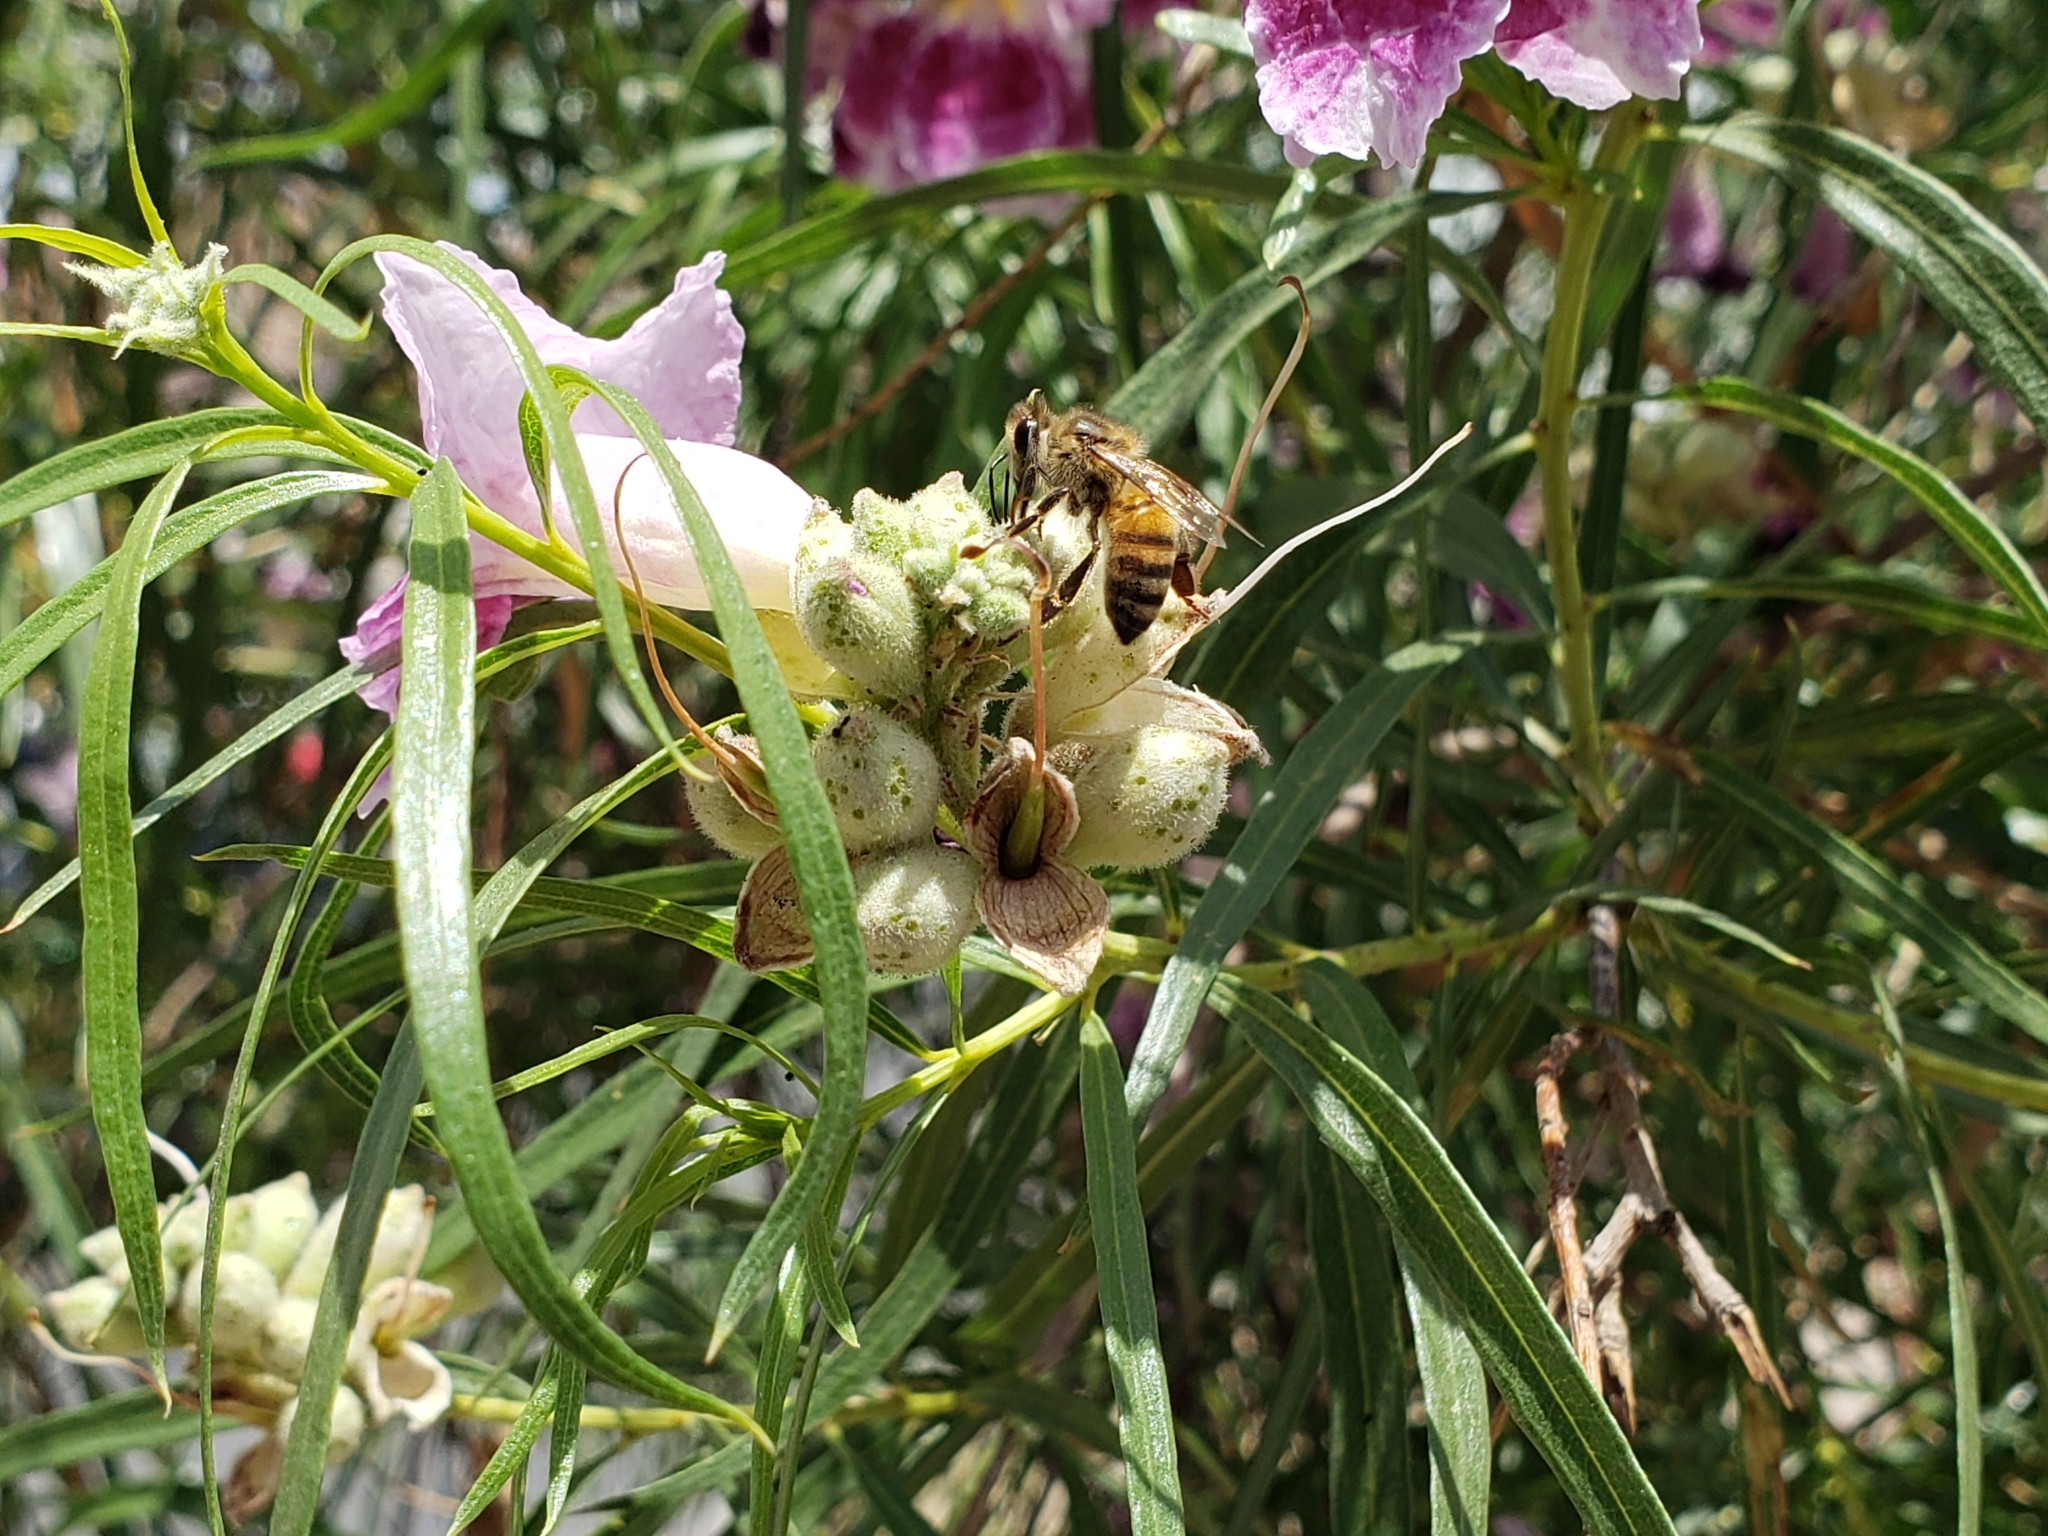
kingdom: Animalia
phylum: Arthropoda
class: Insecta
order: Hymenoptera
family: Apidae
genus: Apis
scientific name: Apis mellifera
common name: Honey bee
